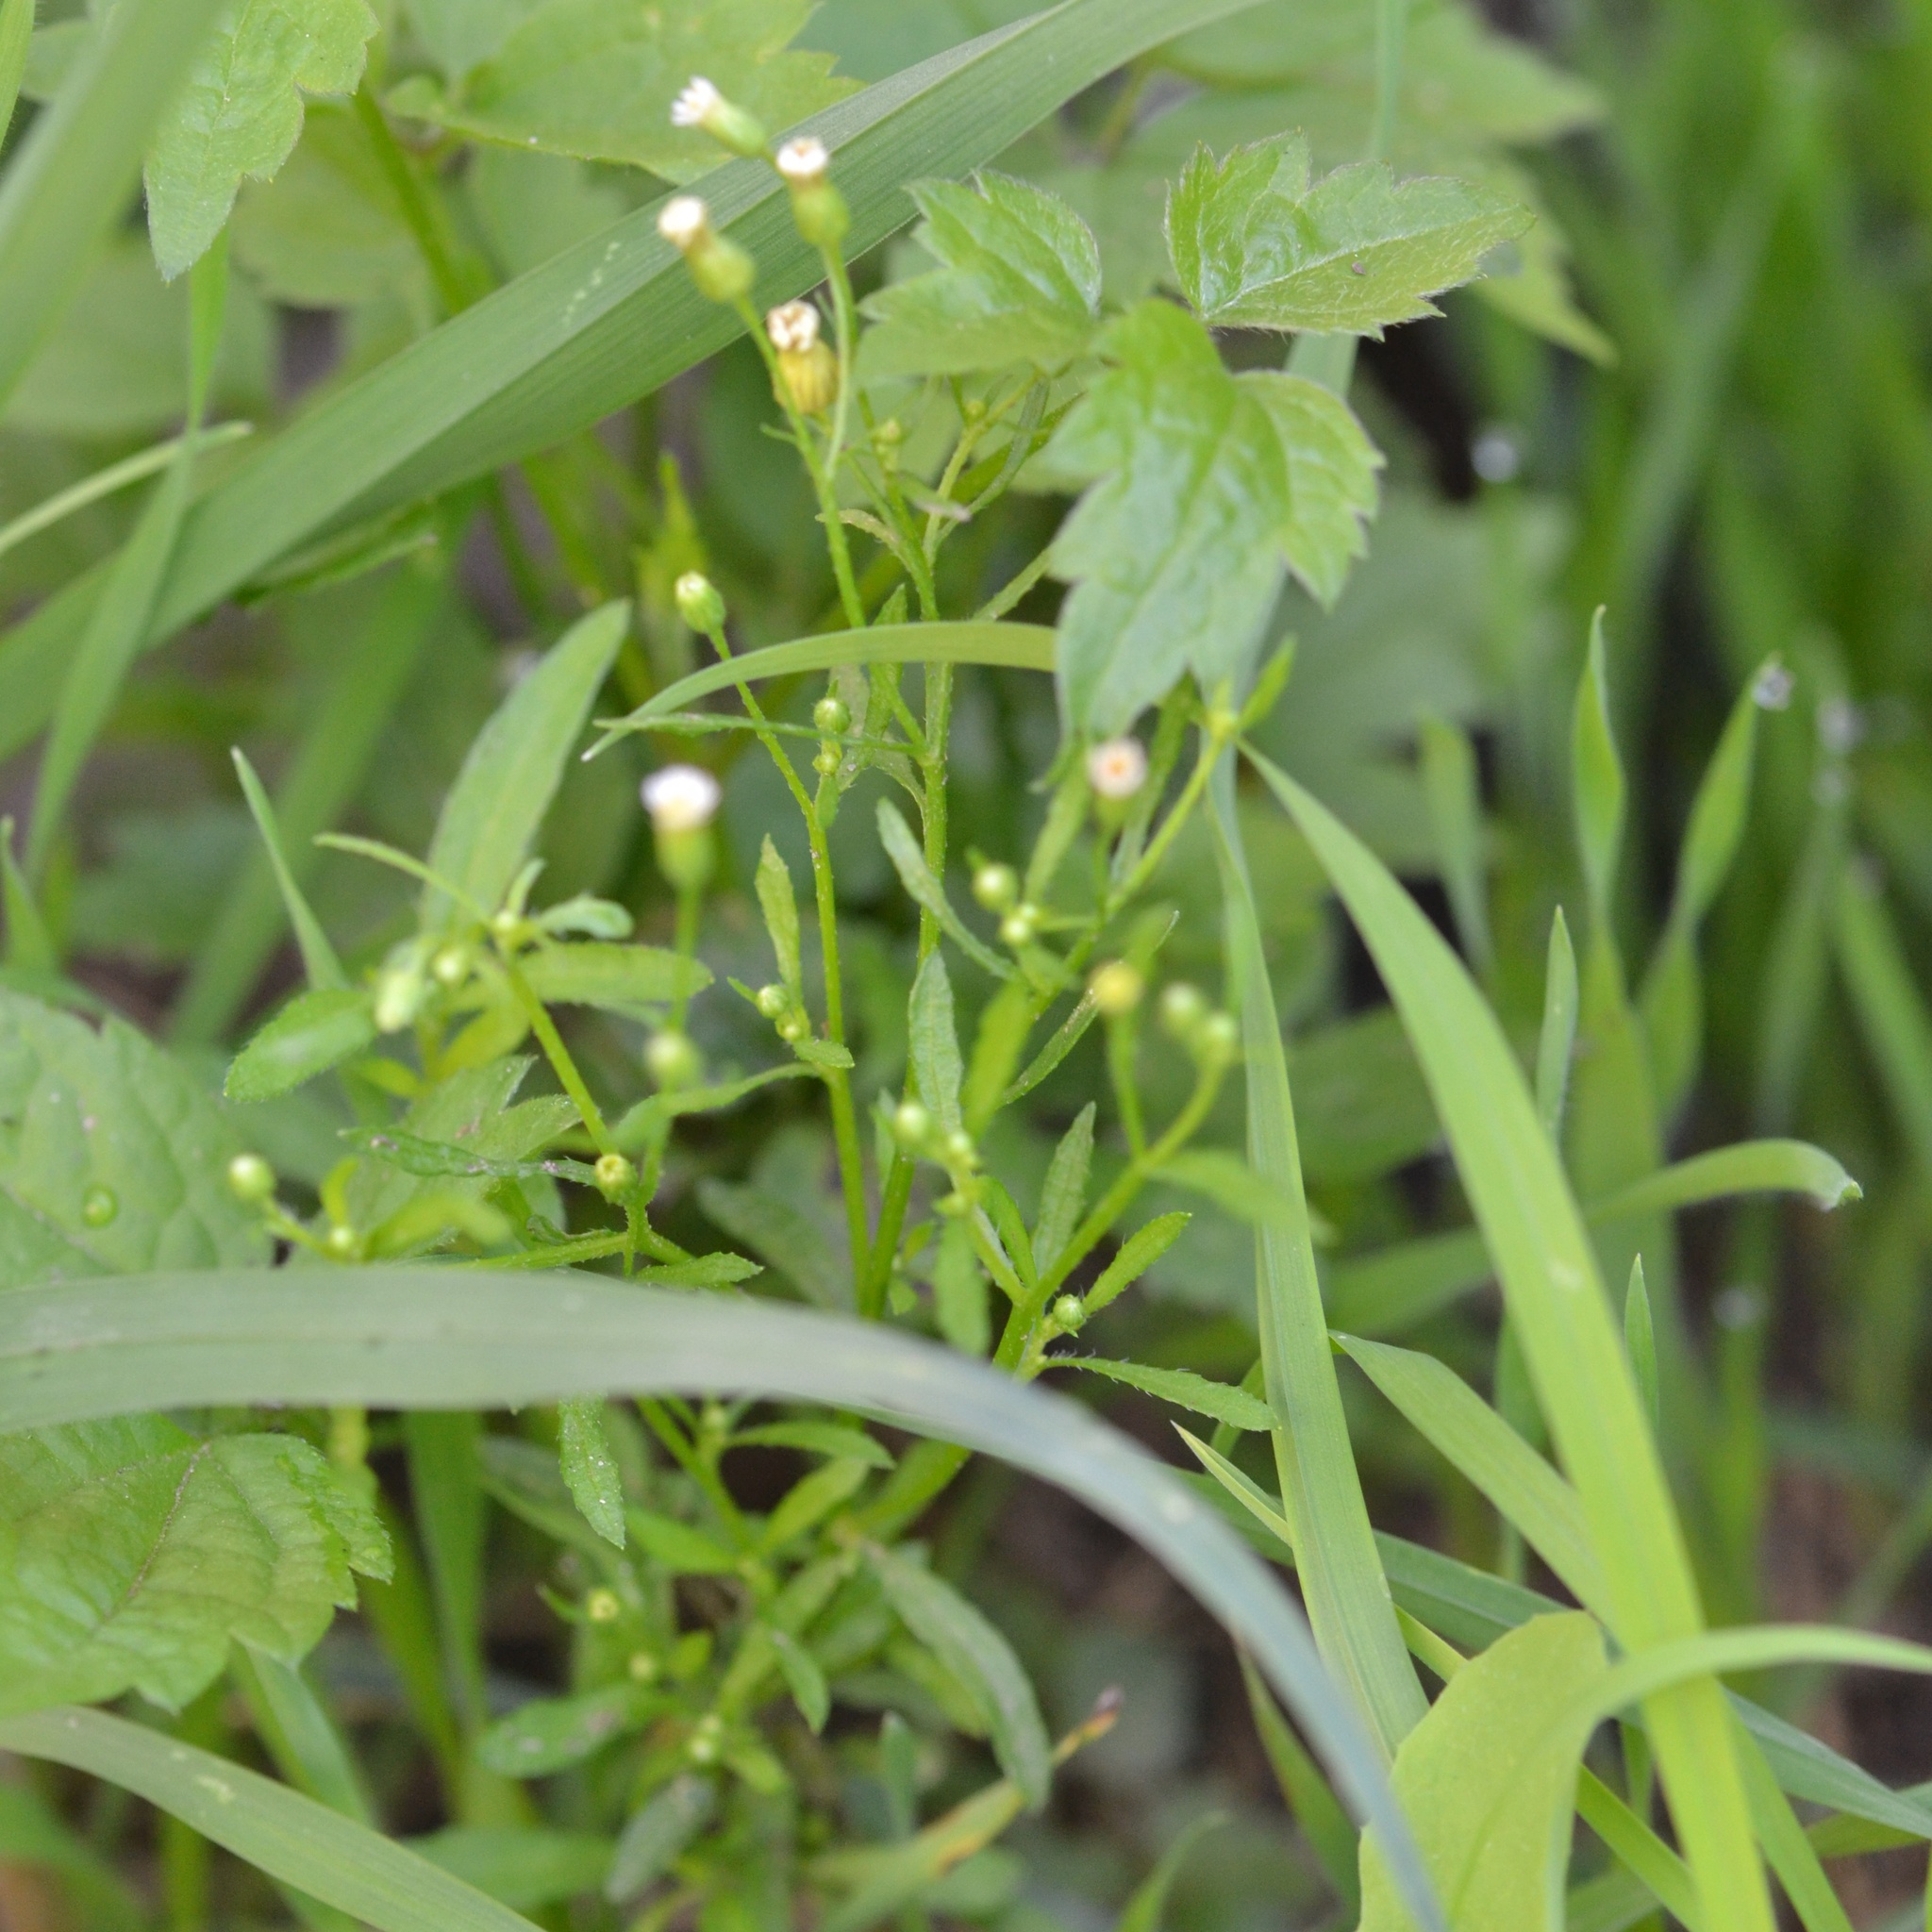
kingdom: Plantae
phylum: Tracheophyta
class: Magnoliopsida
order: Asterales
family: Asteraceae
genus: Erigeron
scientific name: Erigeron canadensis
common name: Canadian fleabane
